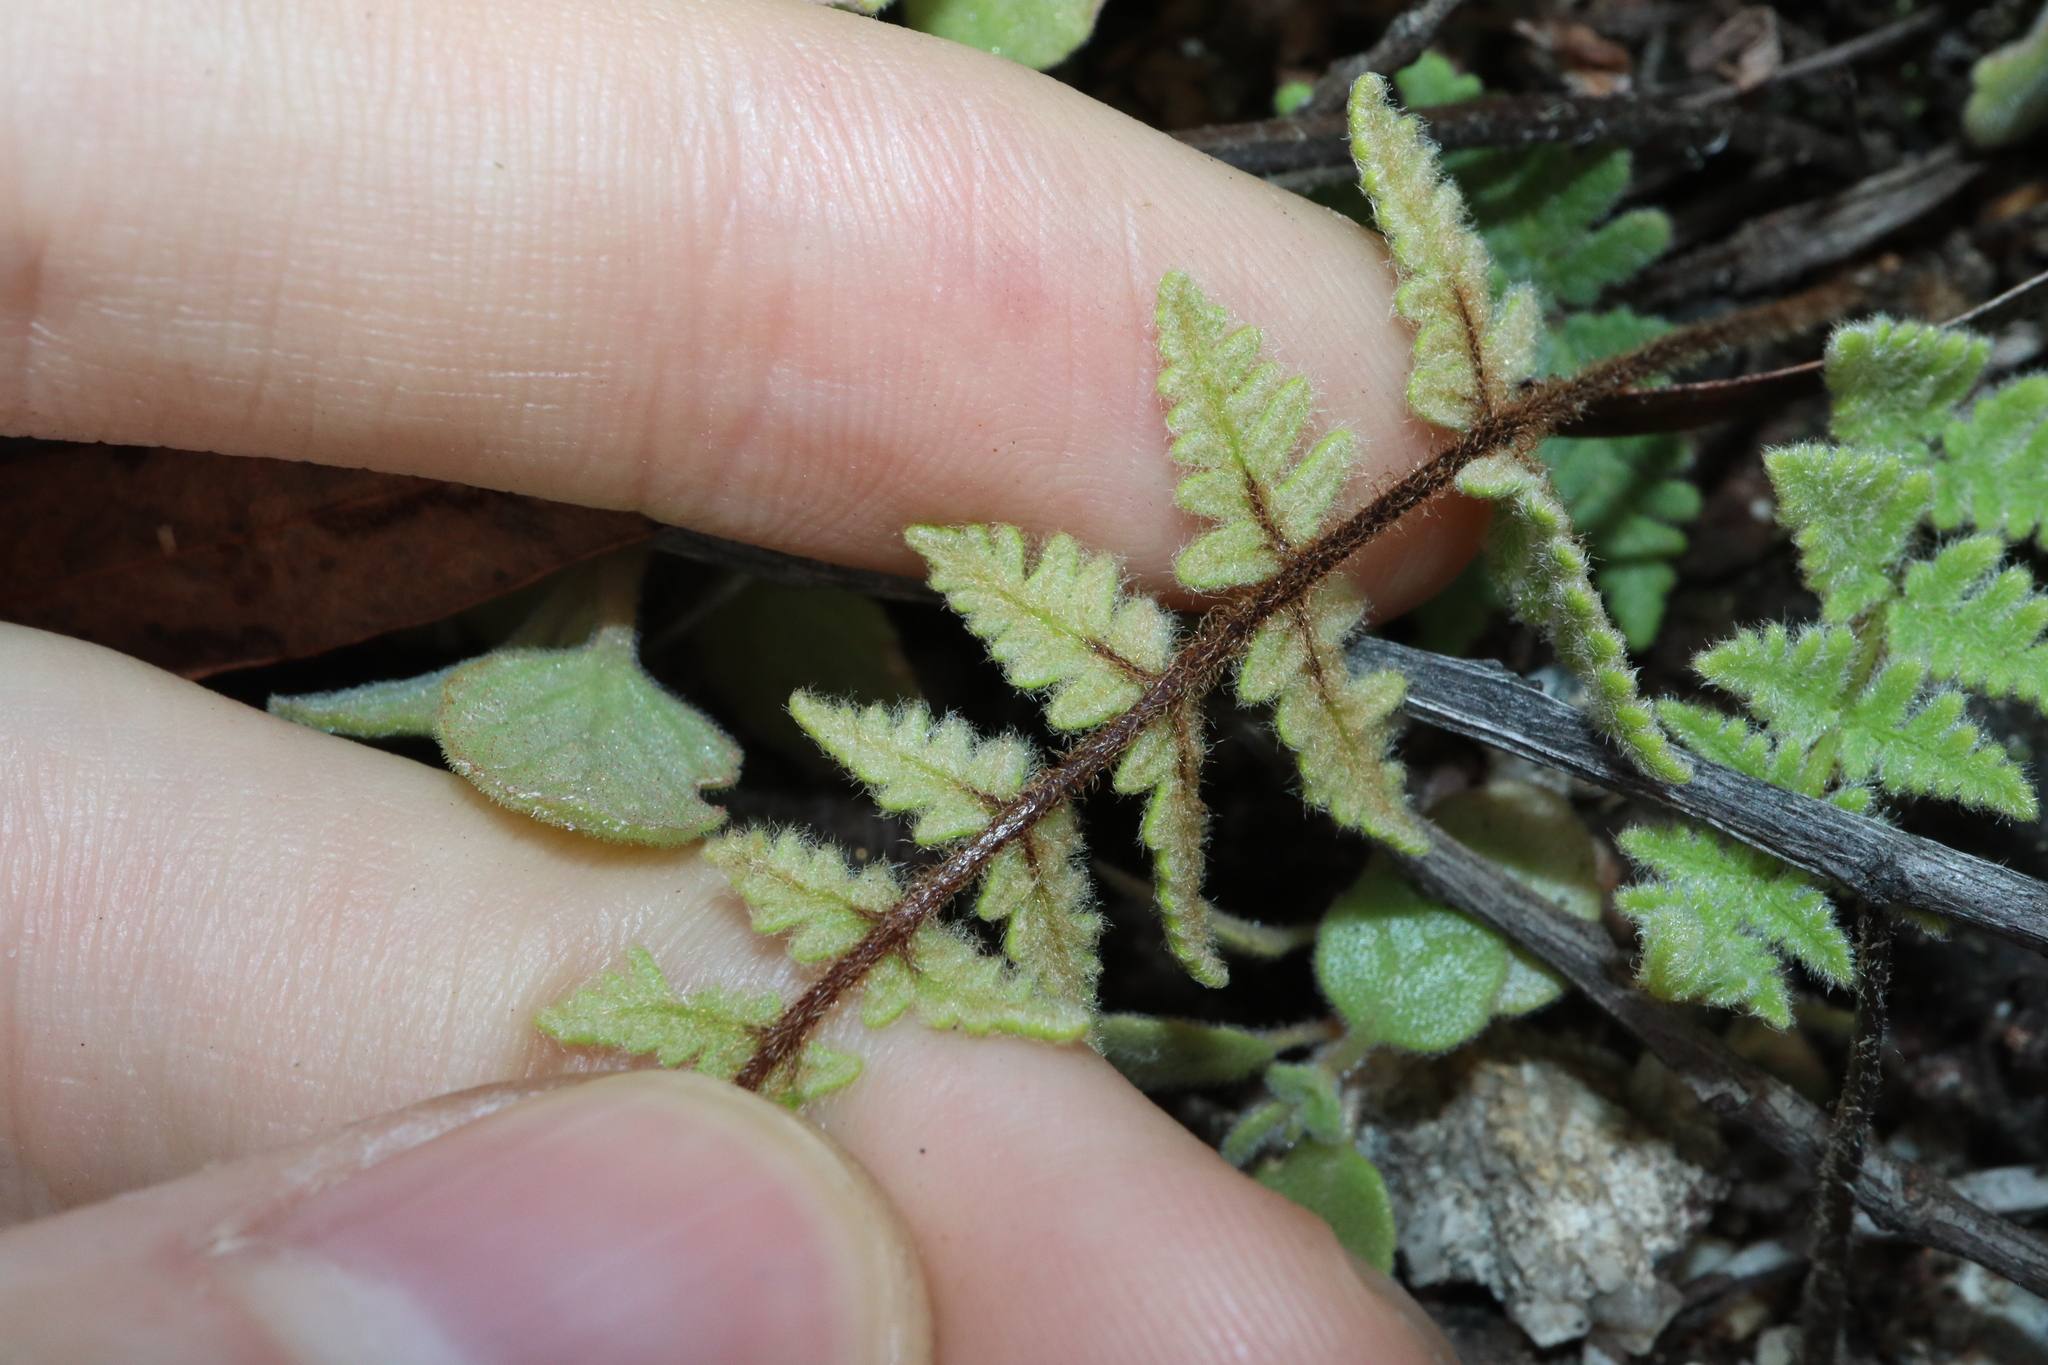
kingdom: Plantae
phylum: Tracheophyta
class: Polypodiopsida
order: Polypodiales
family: Pteridaceae
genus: Cheilanthes
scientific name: Cheilanthes brownii
